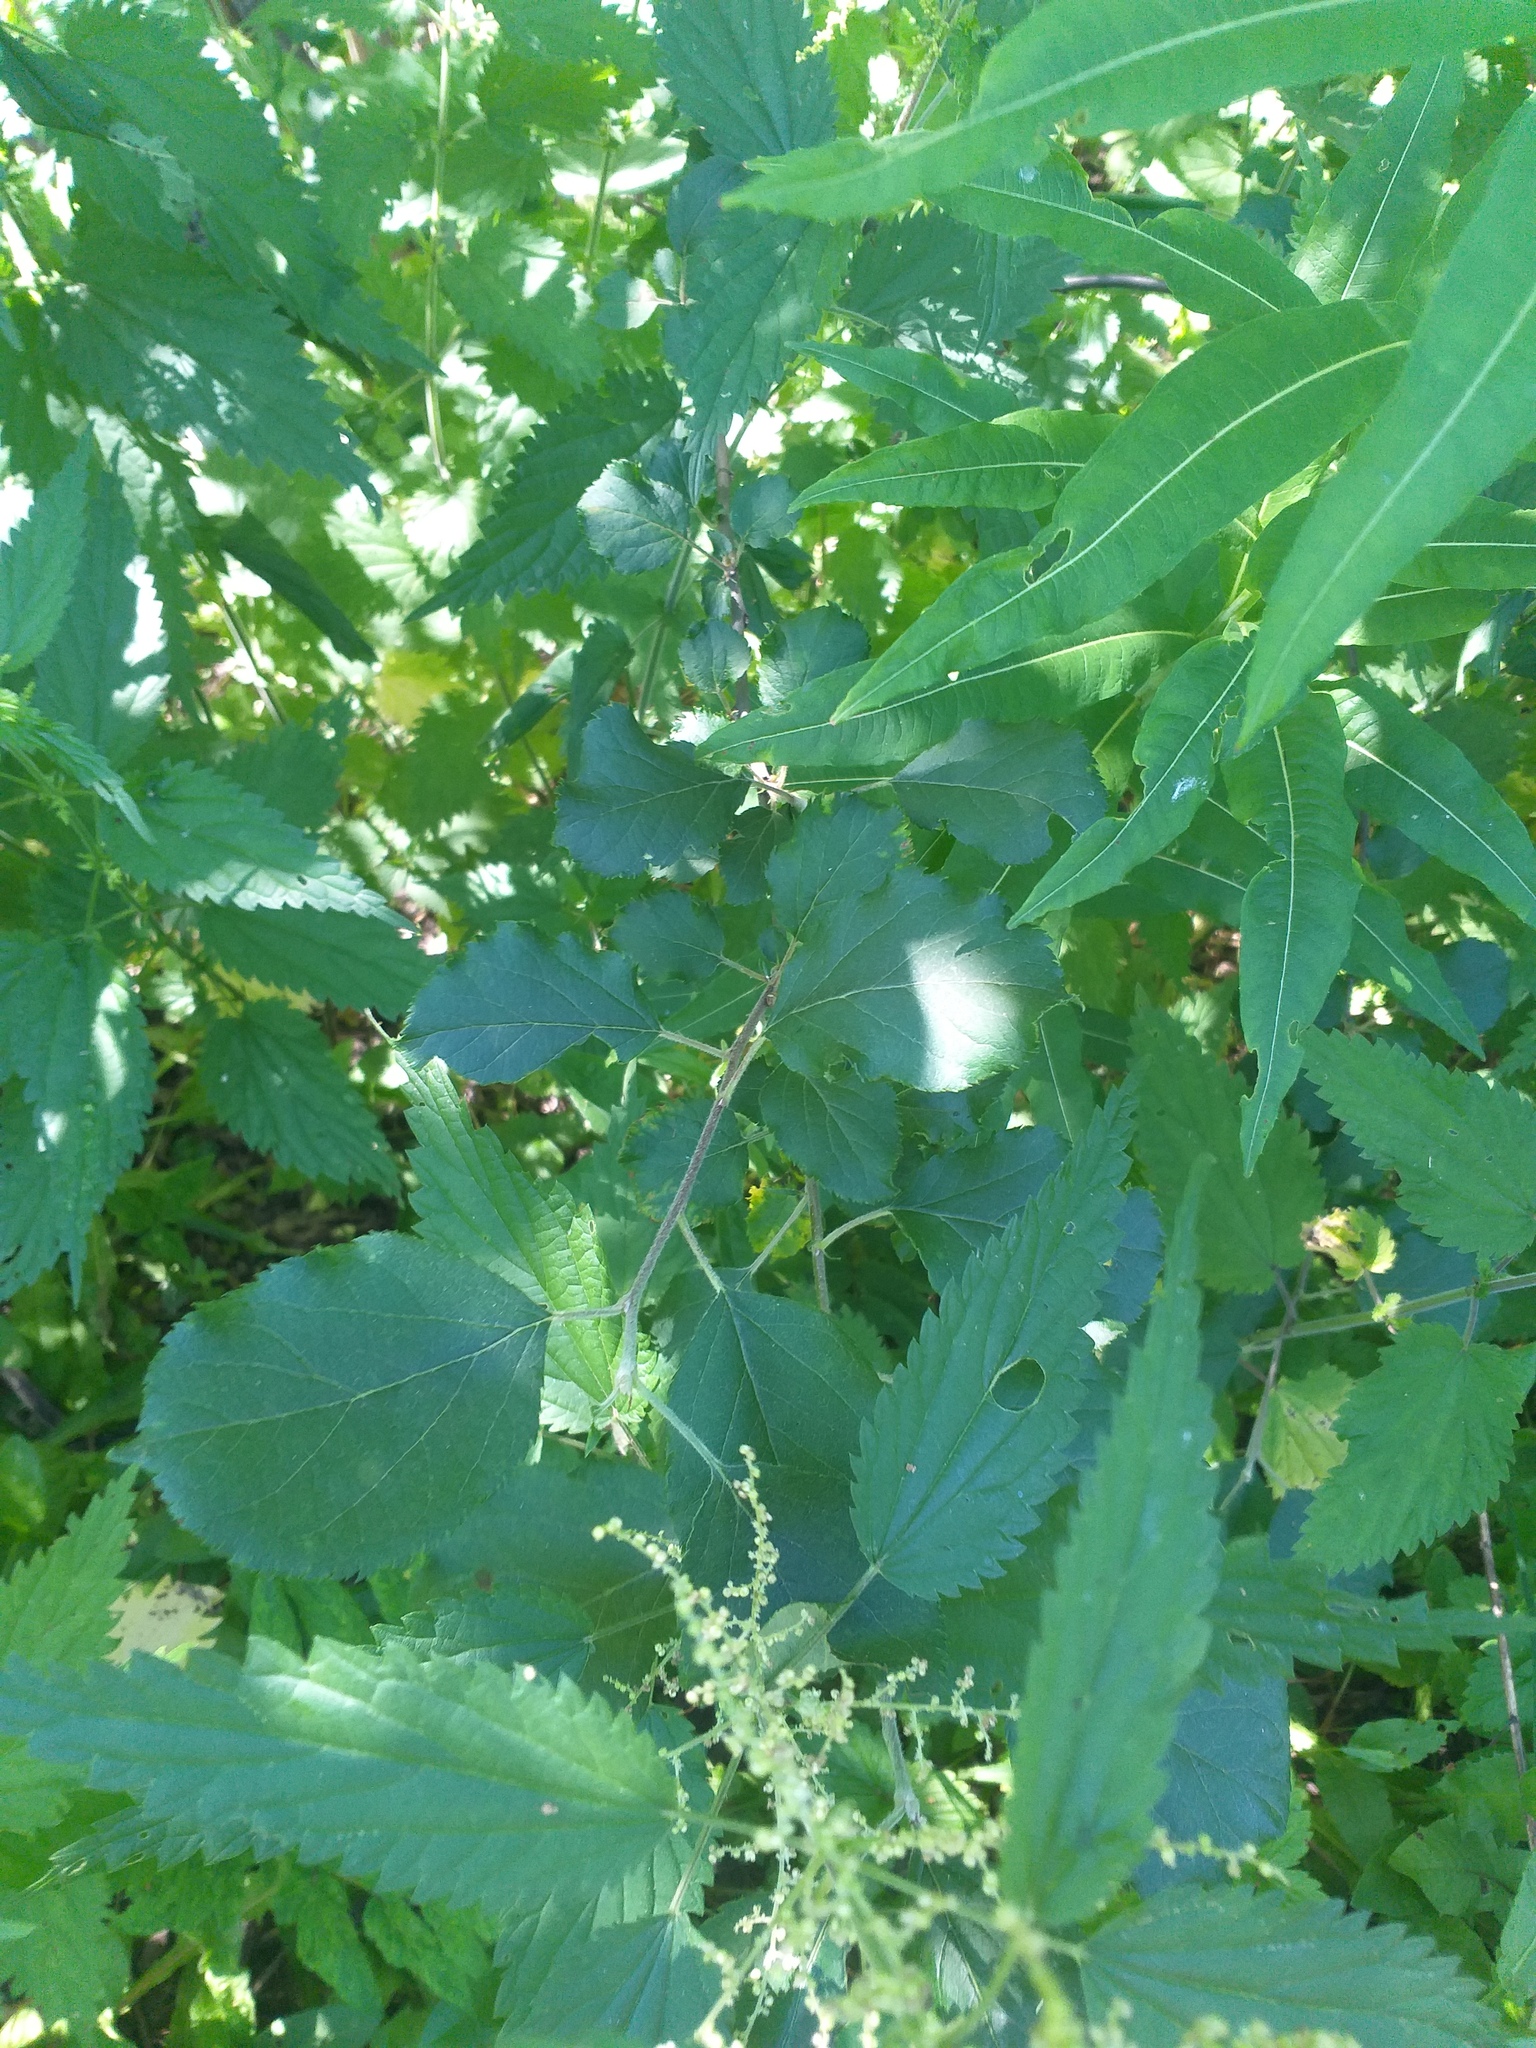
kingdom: Plantae
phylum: Tracheophyta
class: Magnoliopsida
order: Rosales
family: Rosaceae
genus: Malus
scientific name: Malus domestica
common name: Apple
